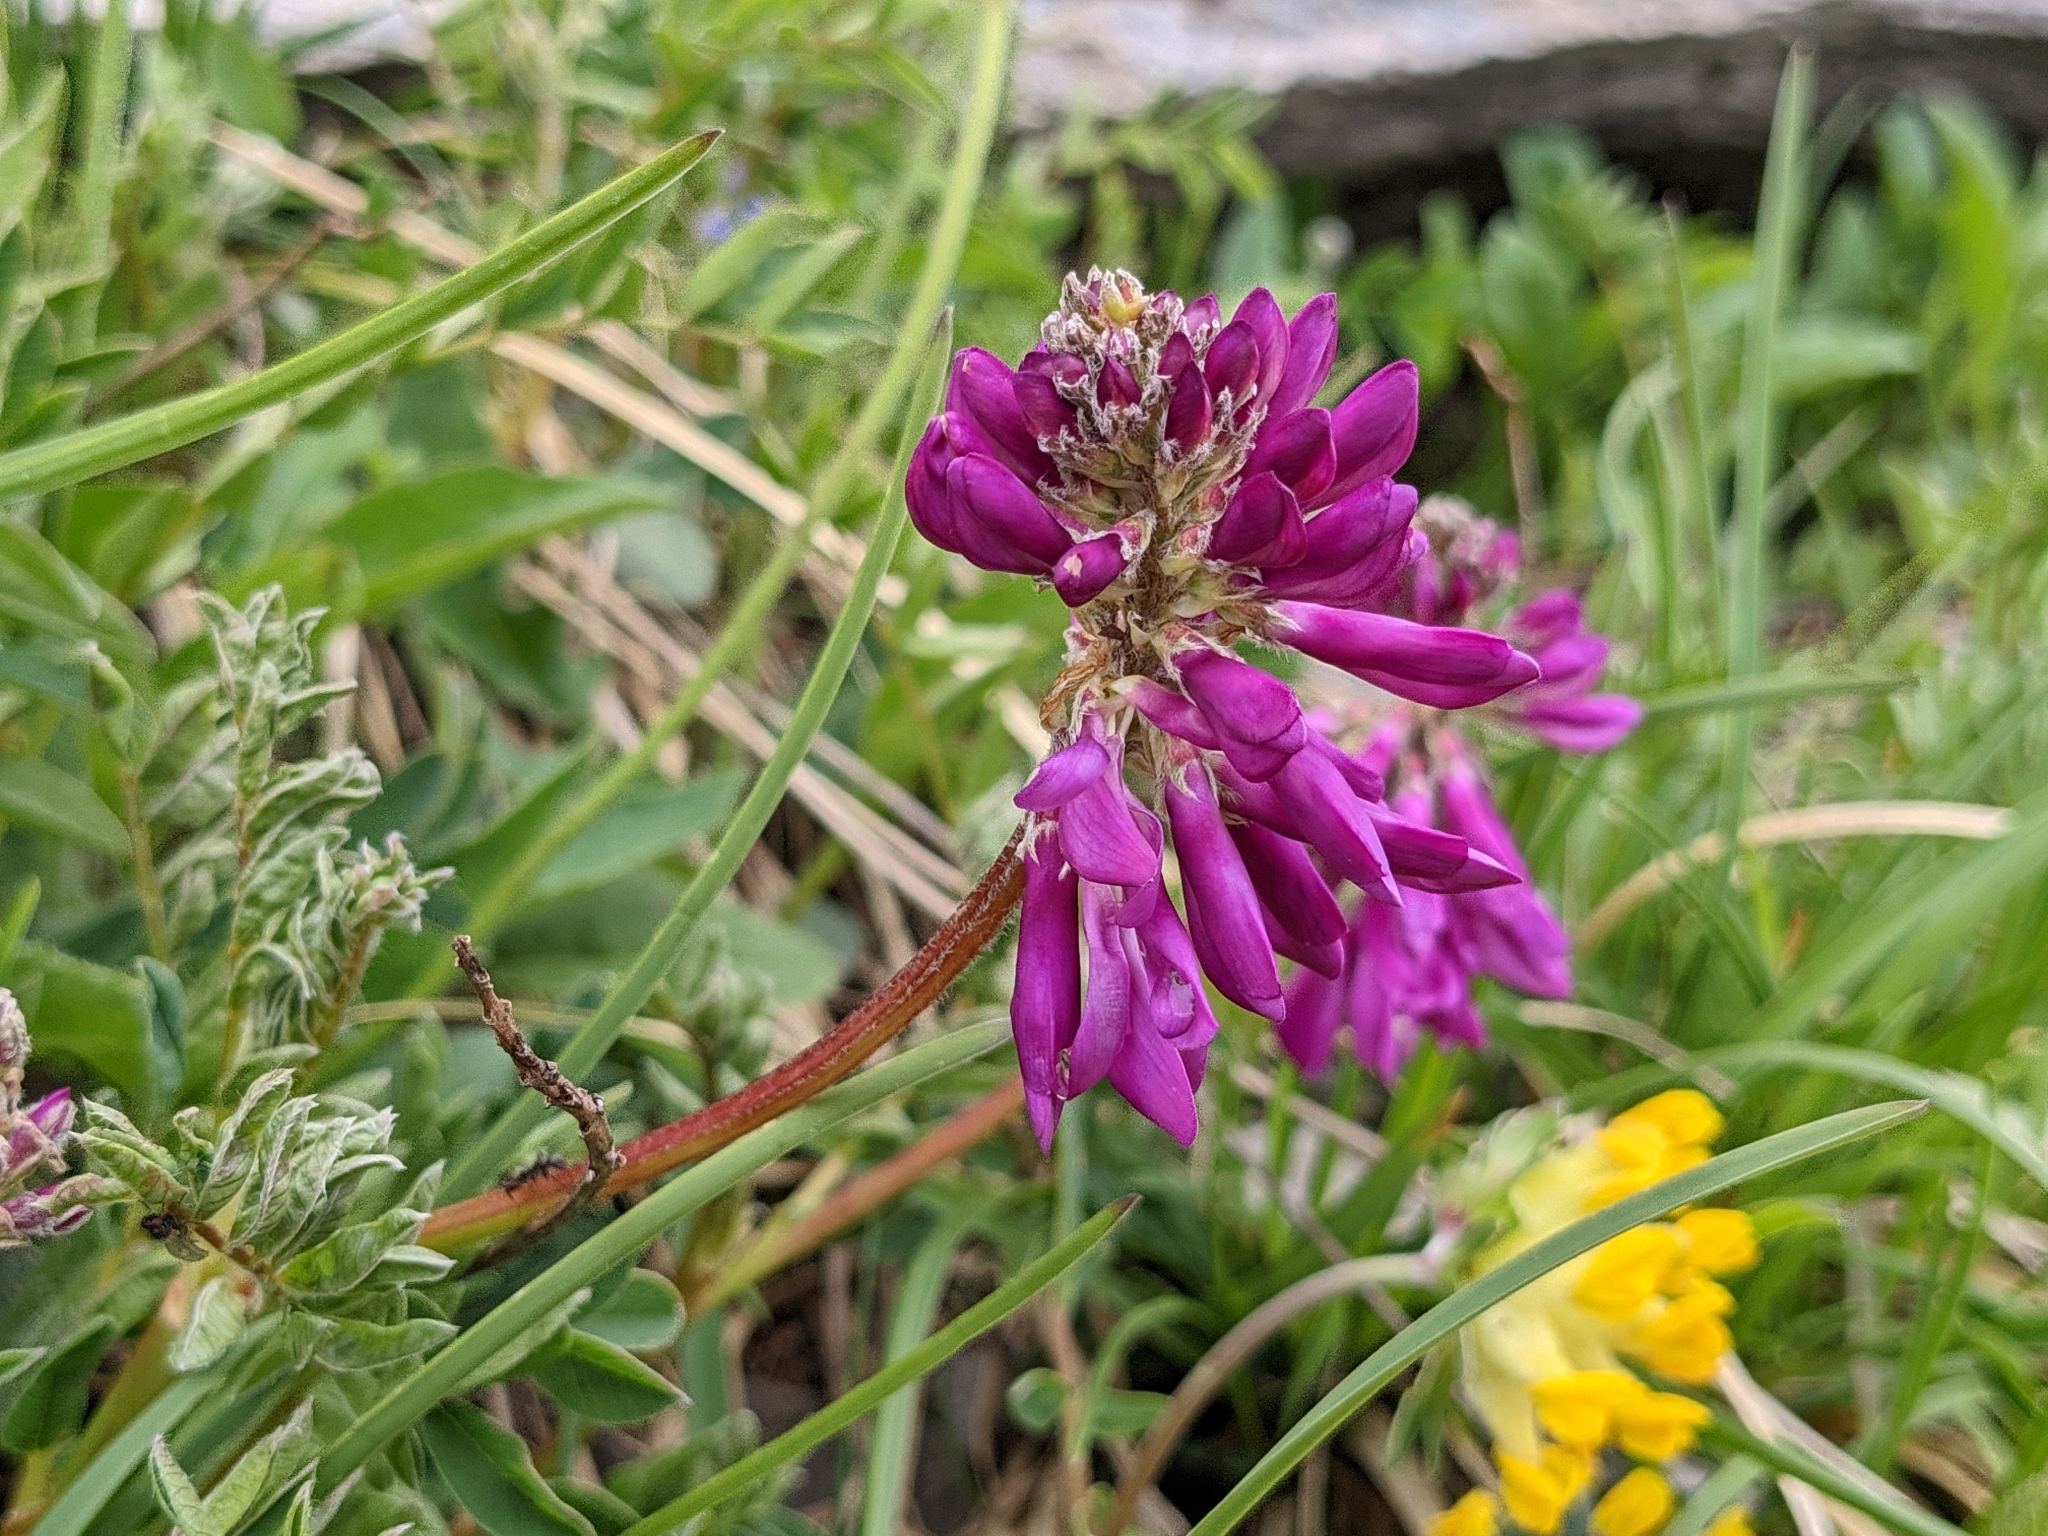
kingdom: Plantae
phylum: Tracheophyta
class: Magnoliopsida
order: Fabales
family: Fabaceae
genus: Hedysarum
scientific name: Hedysarum hedysaroides
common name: Alpine french-honeysuckle
